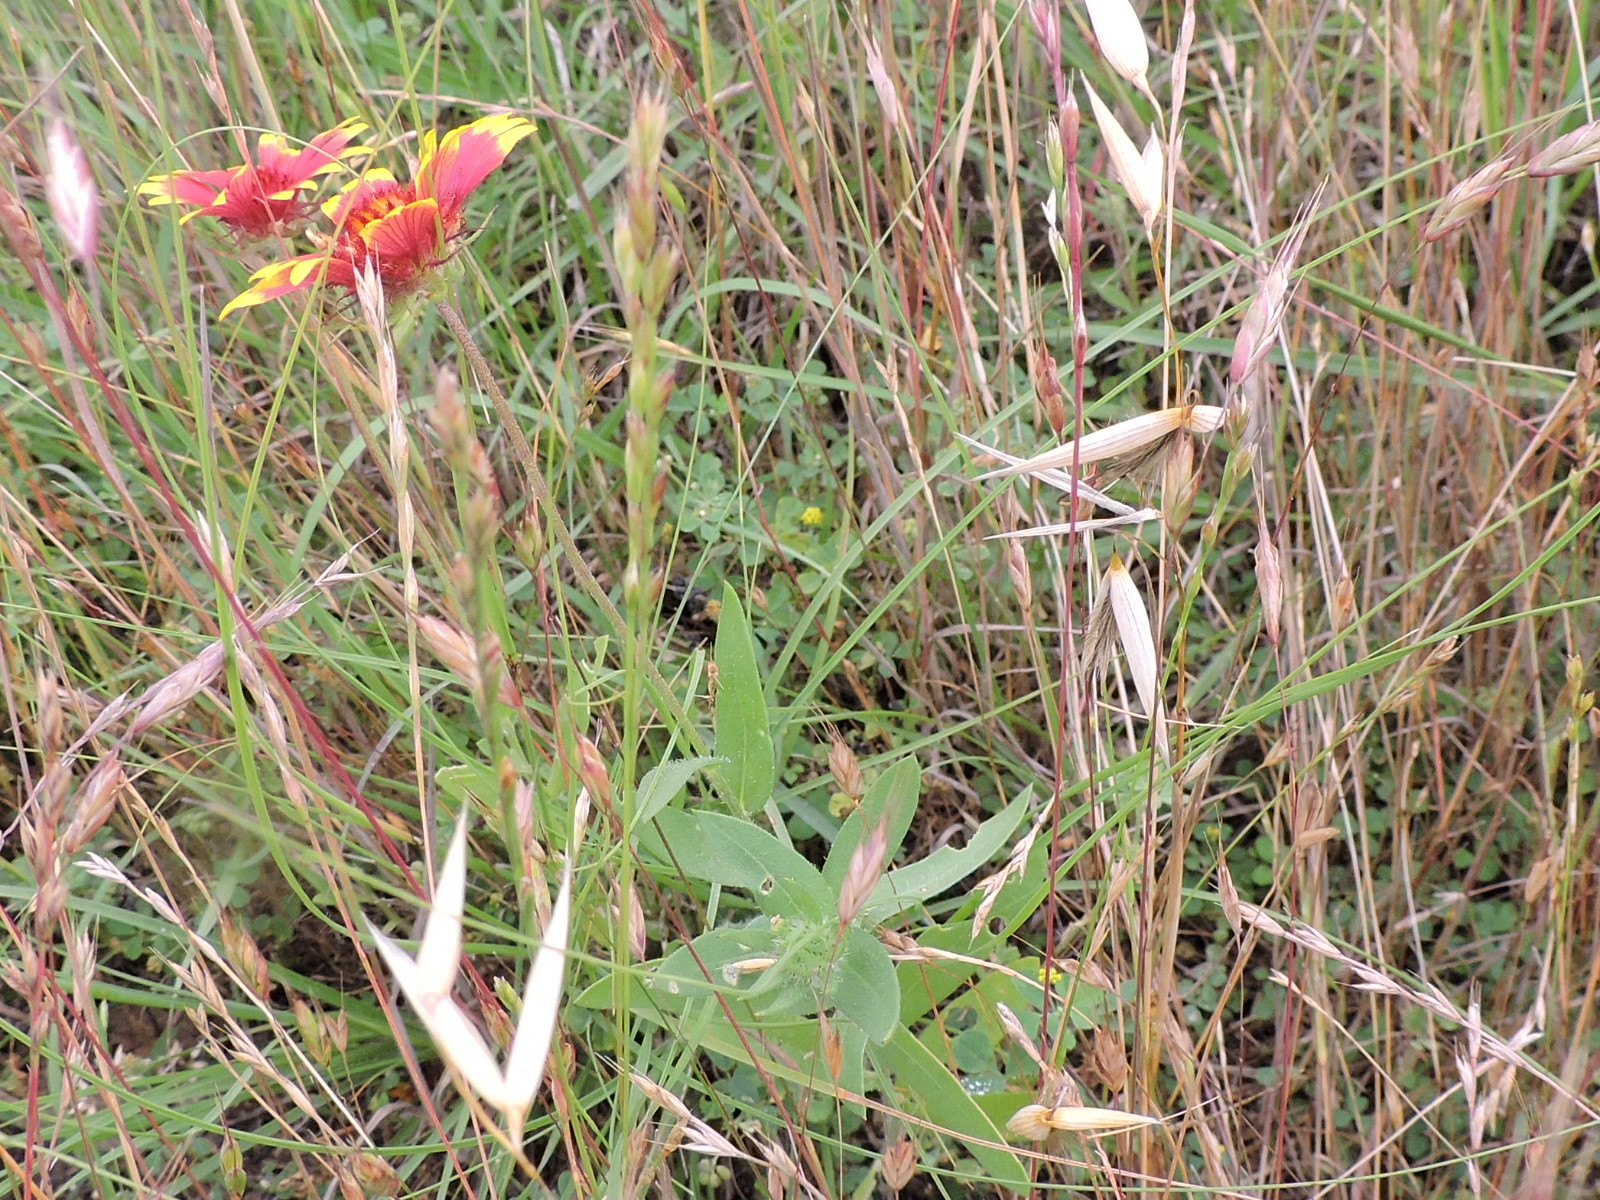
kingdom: Plantae
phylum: Tracheophyta
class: Magnoliopsida
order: Asterales
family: Asteraceae
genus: Gaillardia
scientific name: Gaillardia pulchella
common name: Firewheel
